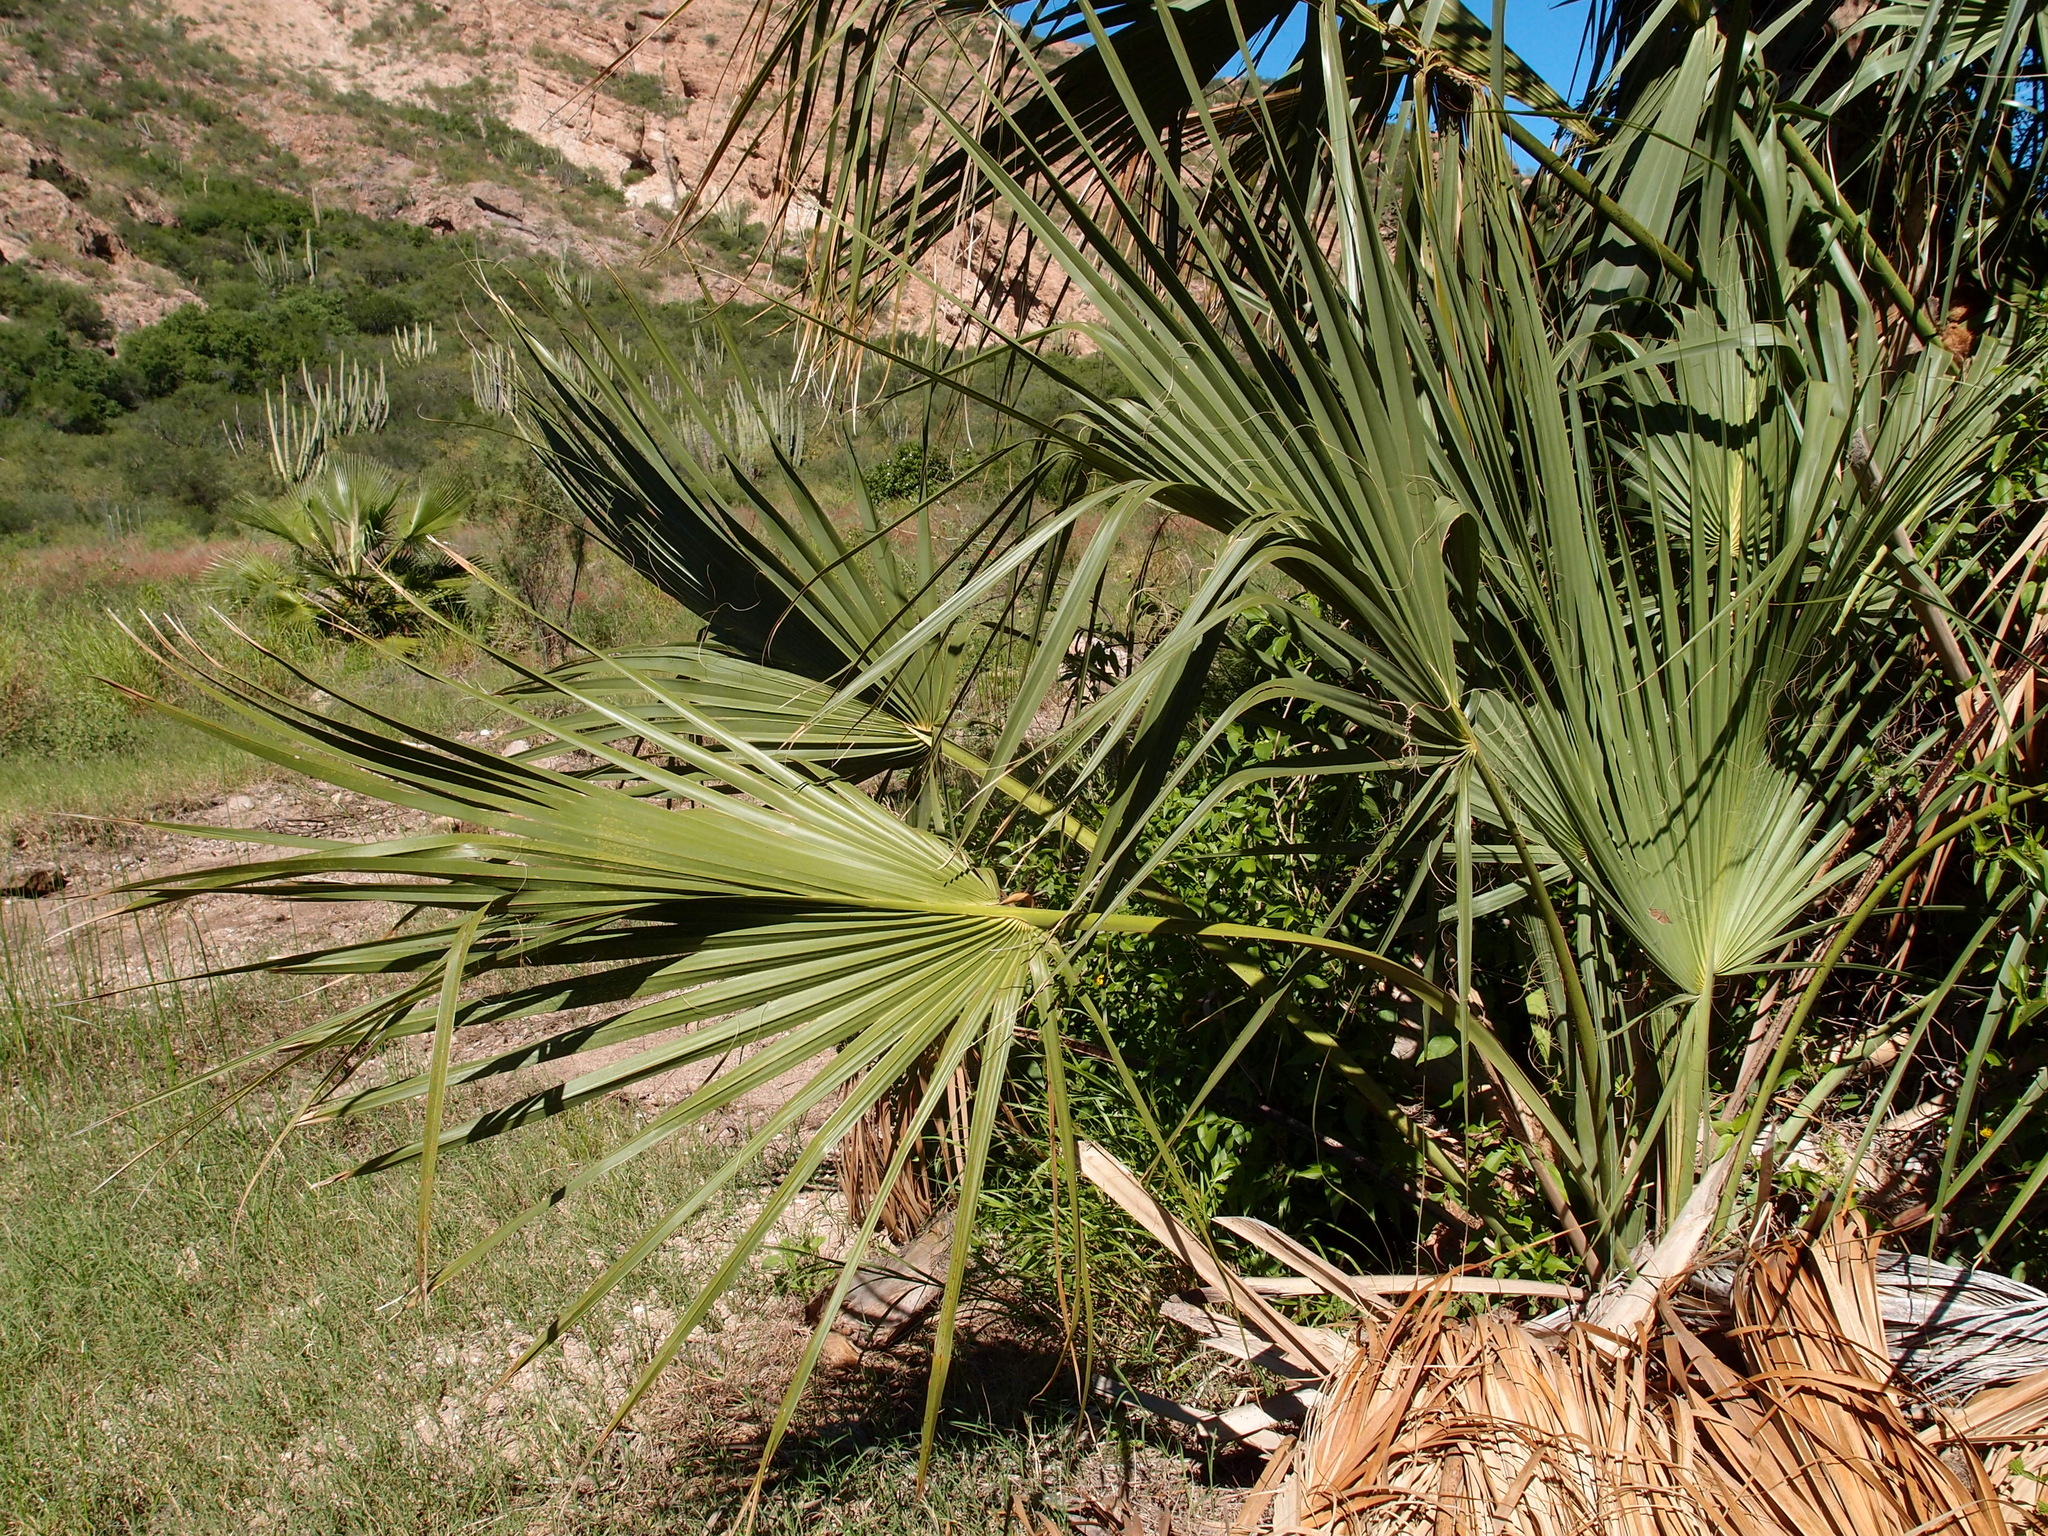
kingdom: Plantae
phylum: Tracheophyta
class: Liliopsida
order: Arecales
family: Arecaceae
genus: Sabal
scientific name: Sabal uresana
